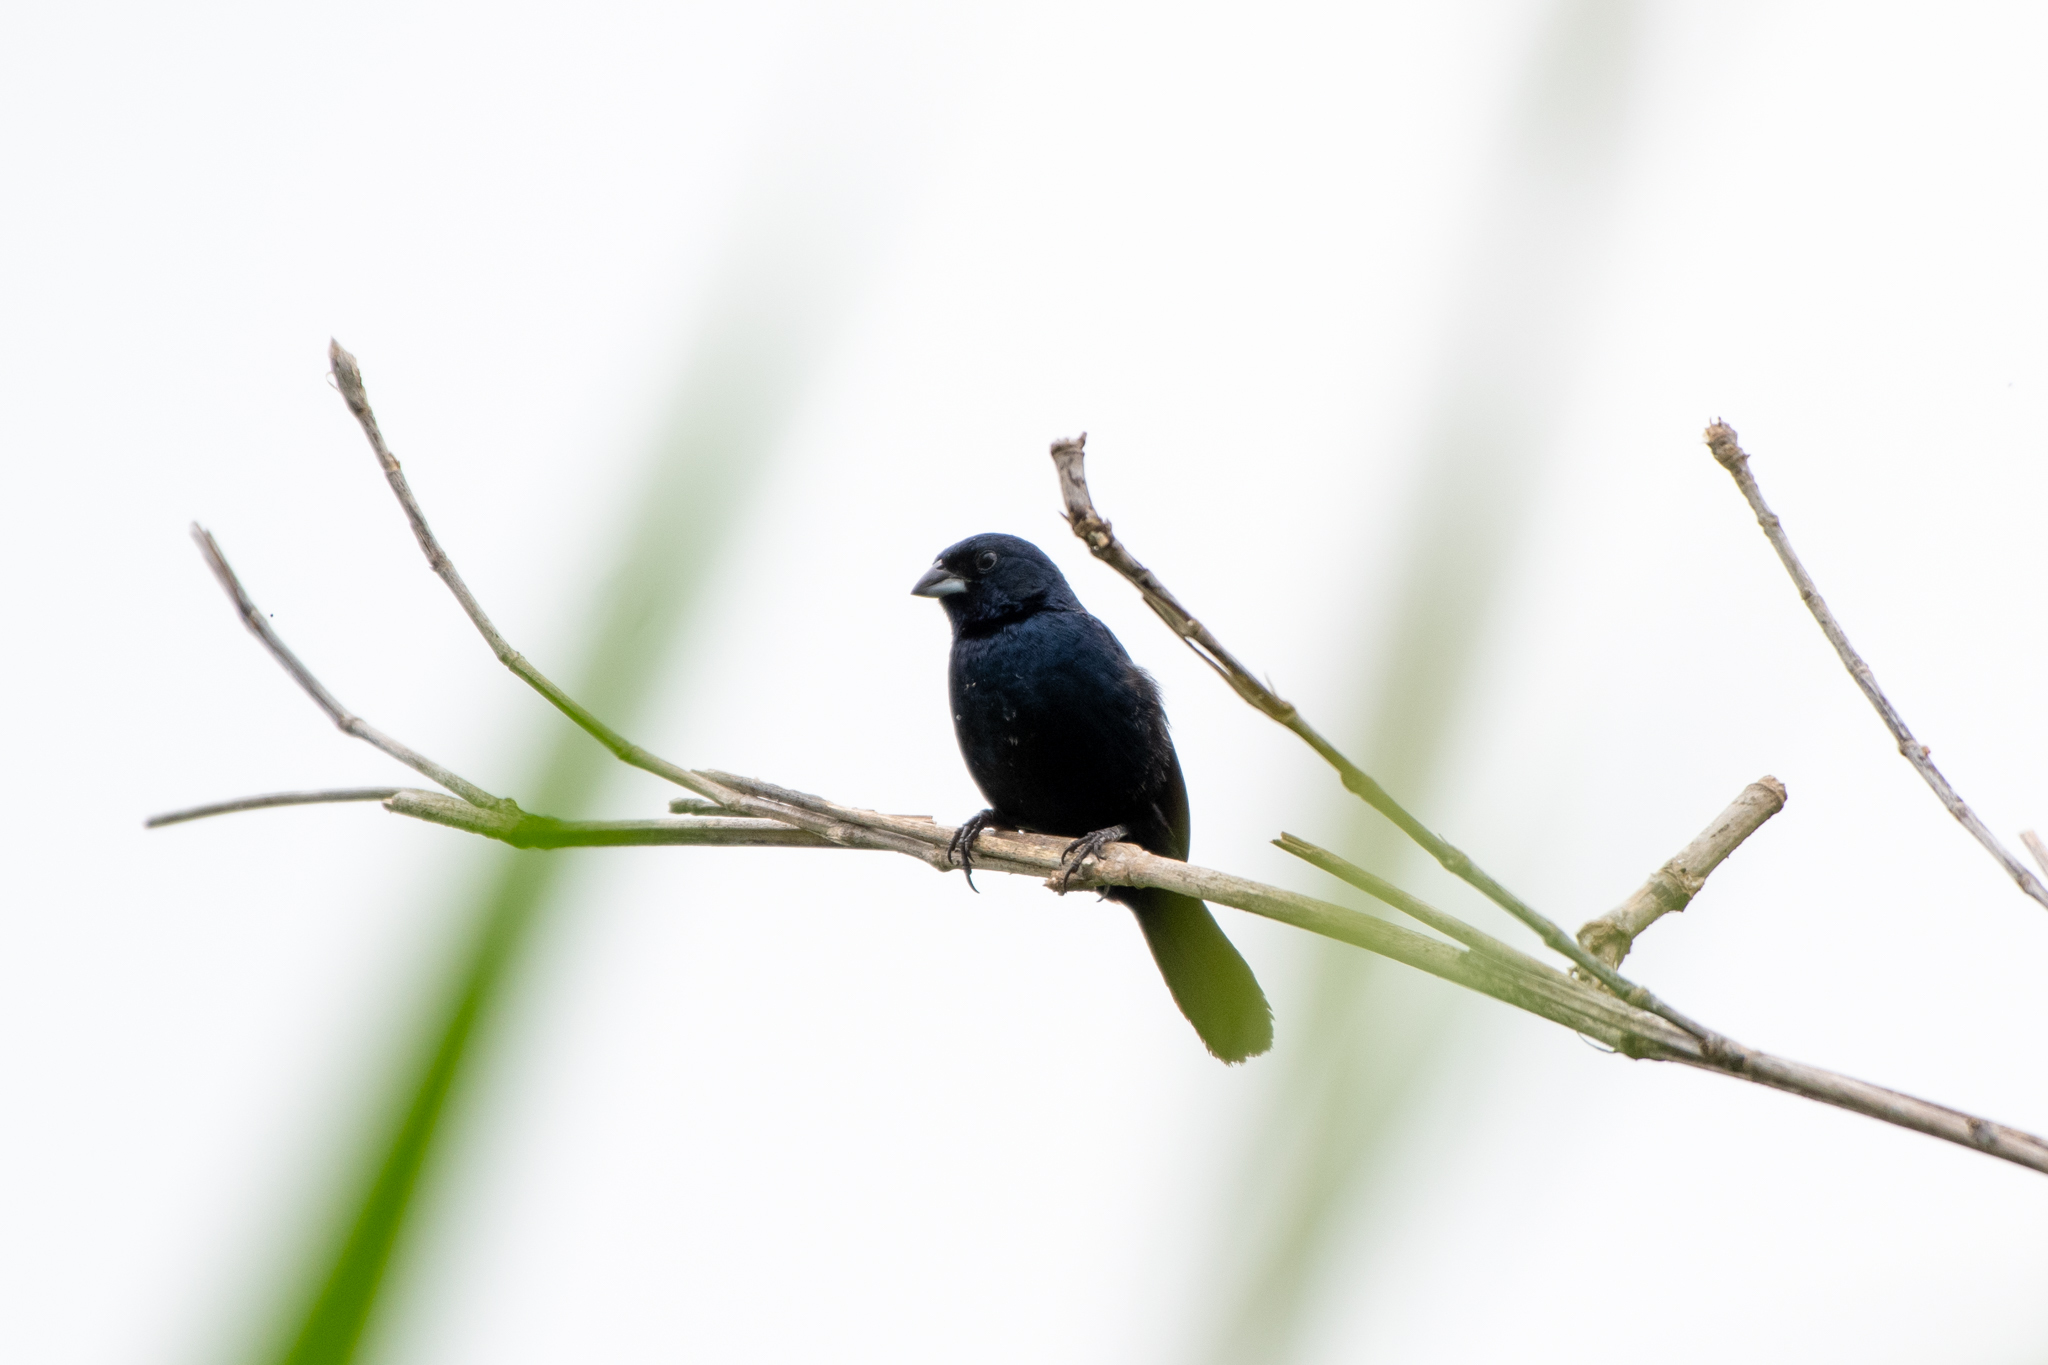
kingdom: Animalia
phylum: Chordata
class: Aves
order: Passeriformes
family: Thraupidae
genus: Volatinia
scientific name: Volatinia jacarina
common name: Blue-black grassquit
